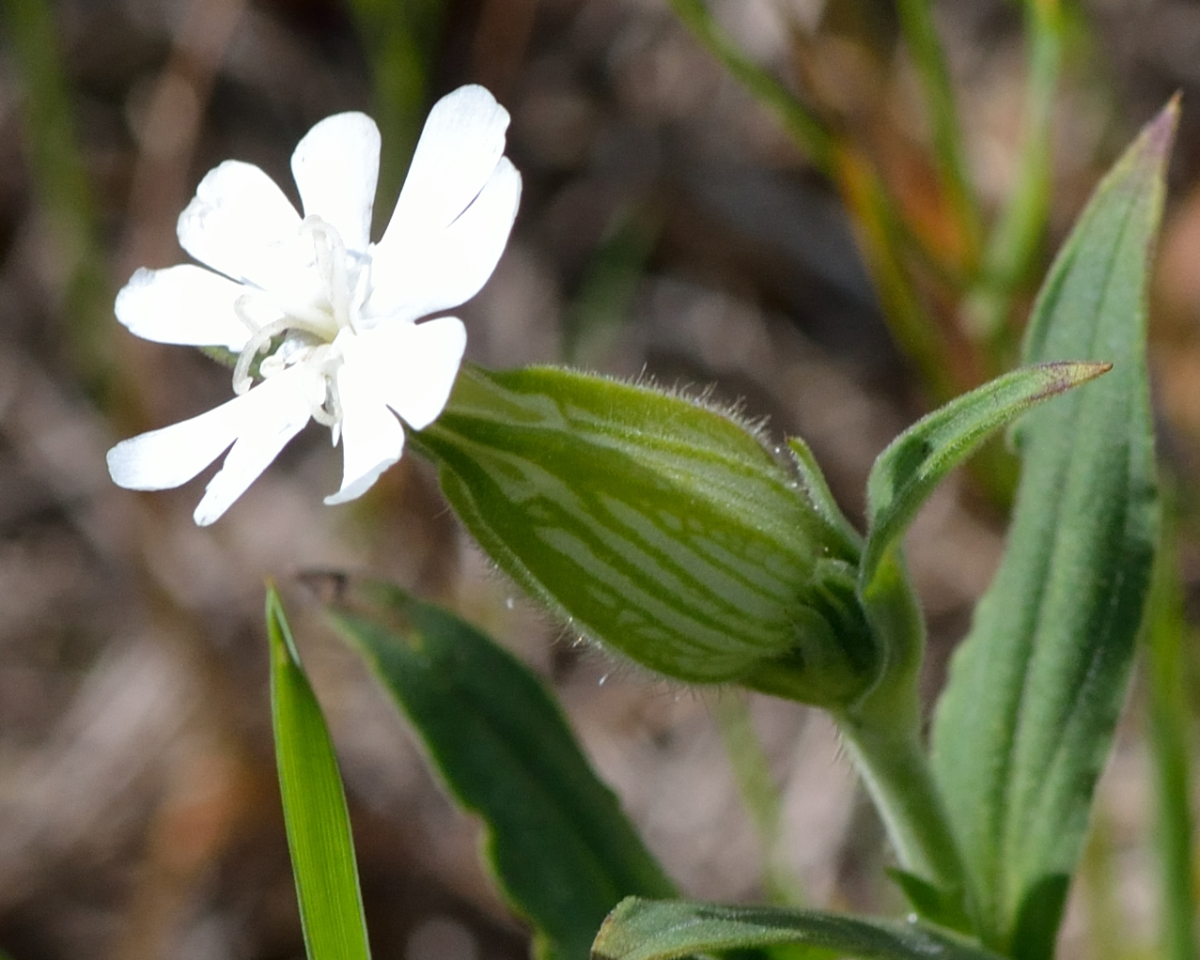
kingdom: Plantae
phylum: Tracheophyta
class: Magnoliopsida
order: Caryophyllales
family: Caryophyllaceae
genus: Silene
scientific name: Silene latifolia
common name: White campion
